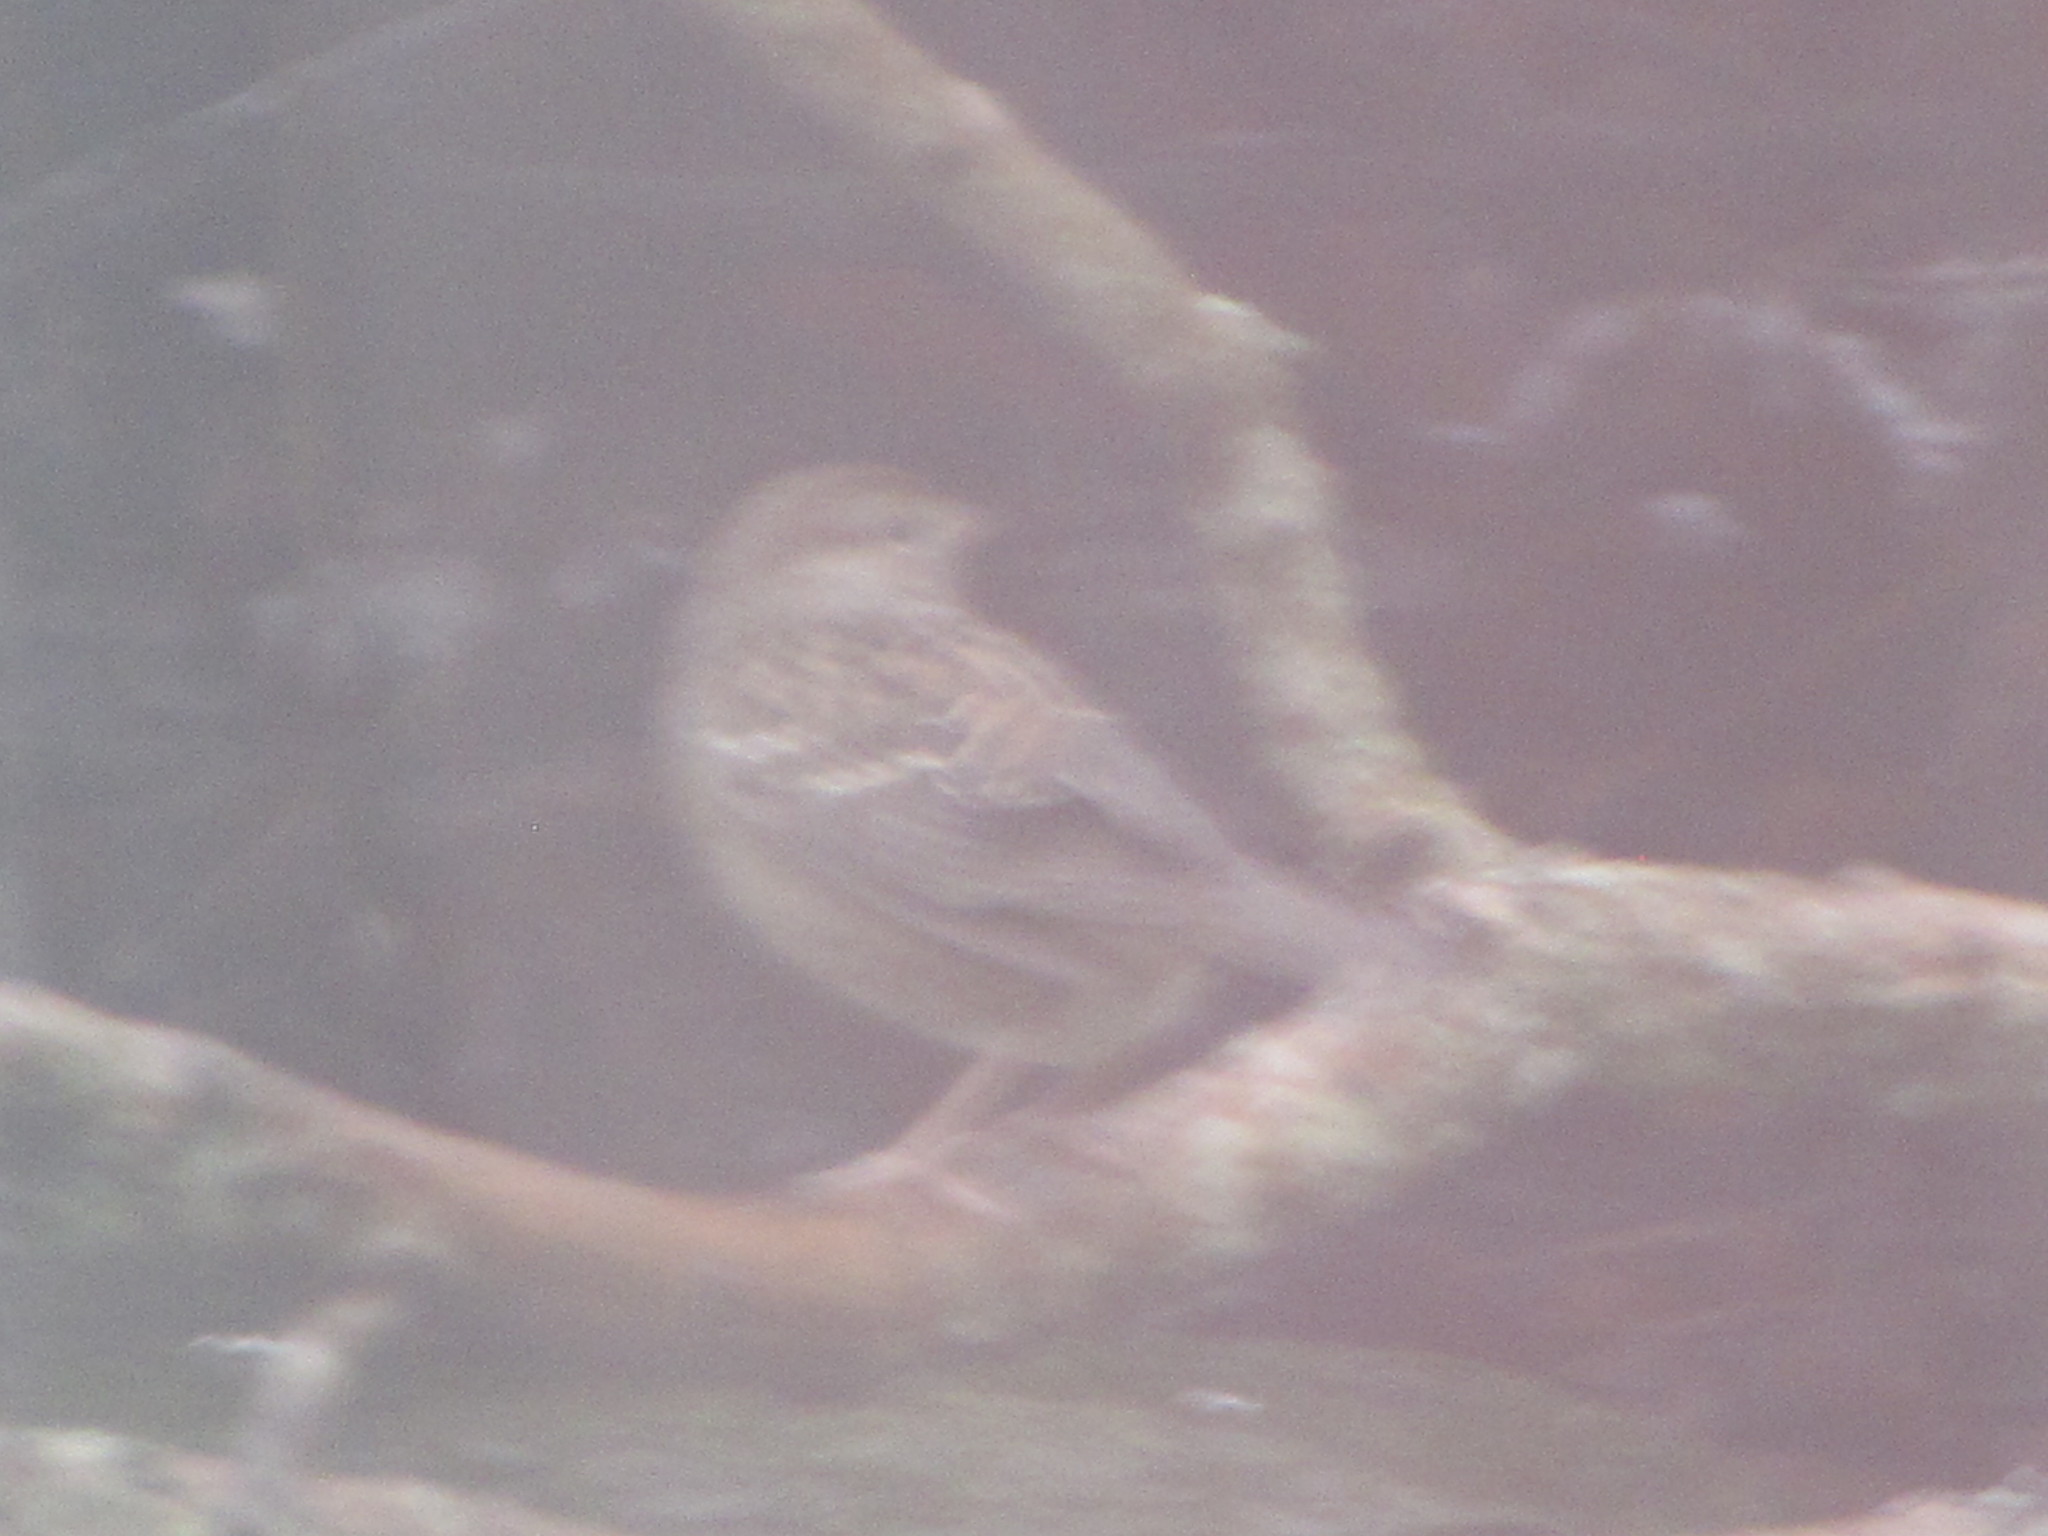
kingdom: Animalia
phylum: Chordata
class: Aves
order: Passeriformes
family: Passerellidae
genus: Zonotrichia
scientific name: Zonotrichia atricapilla
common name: Golden-crowned sparrow
